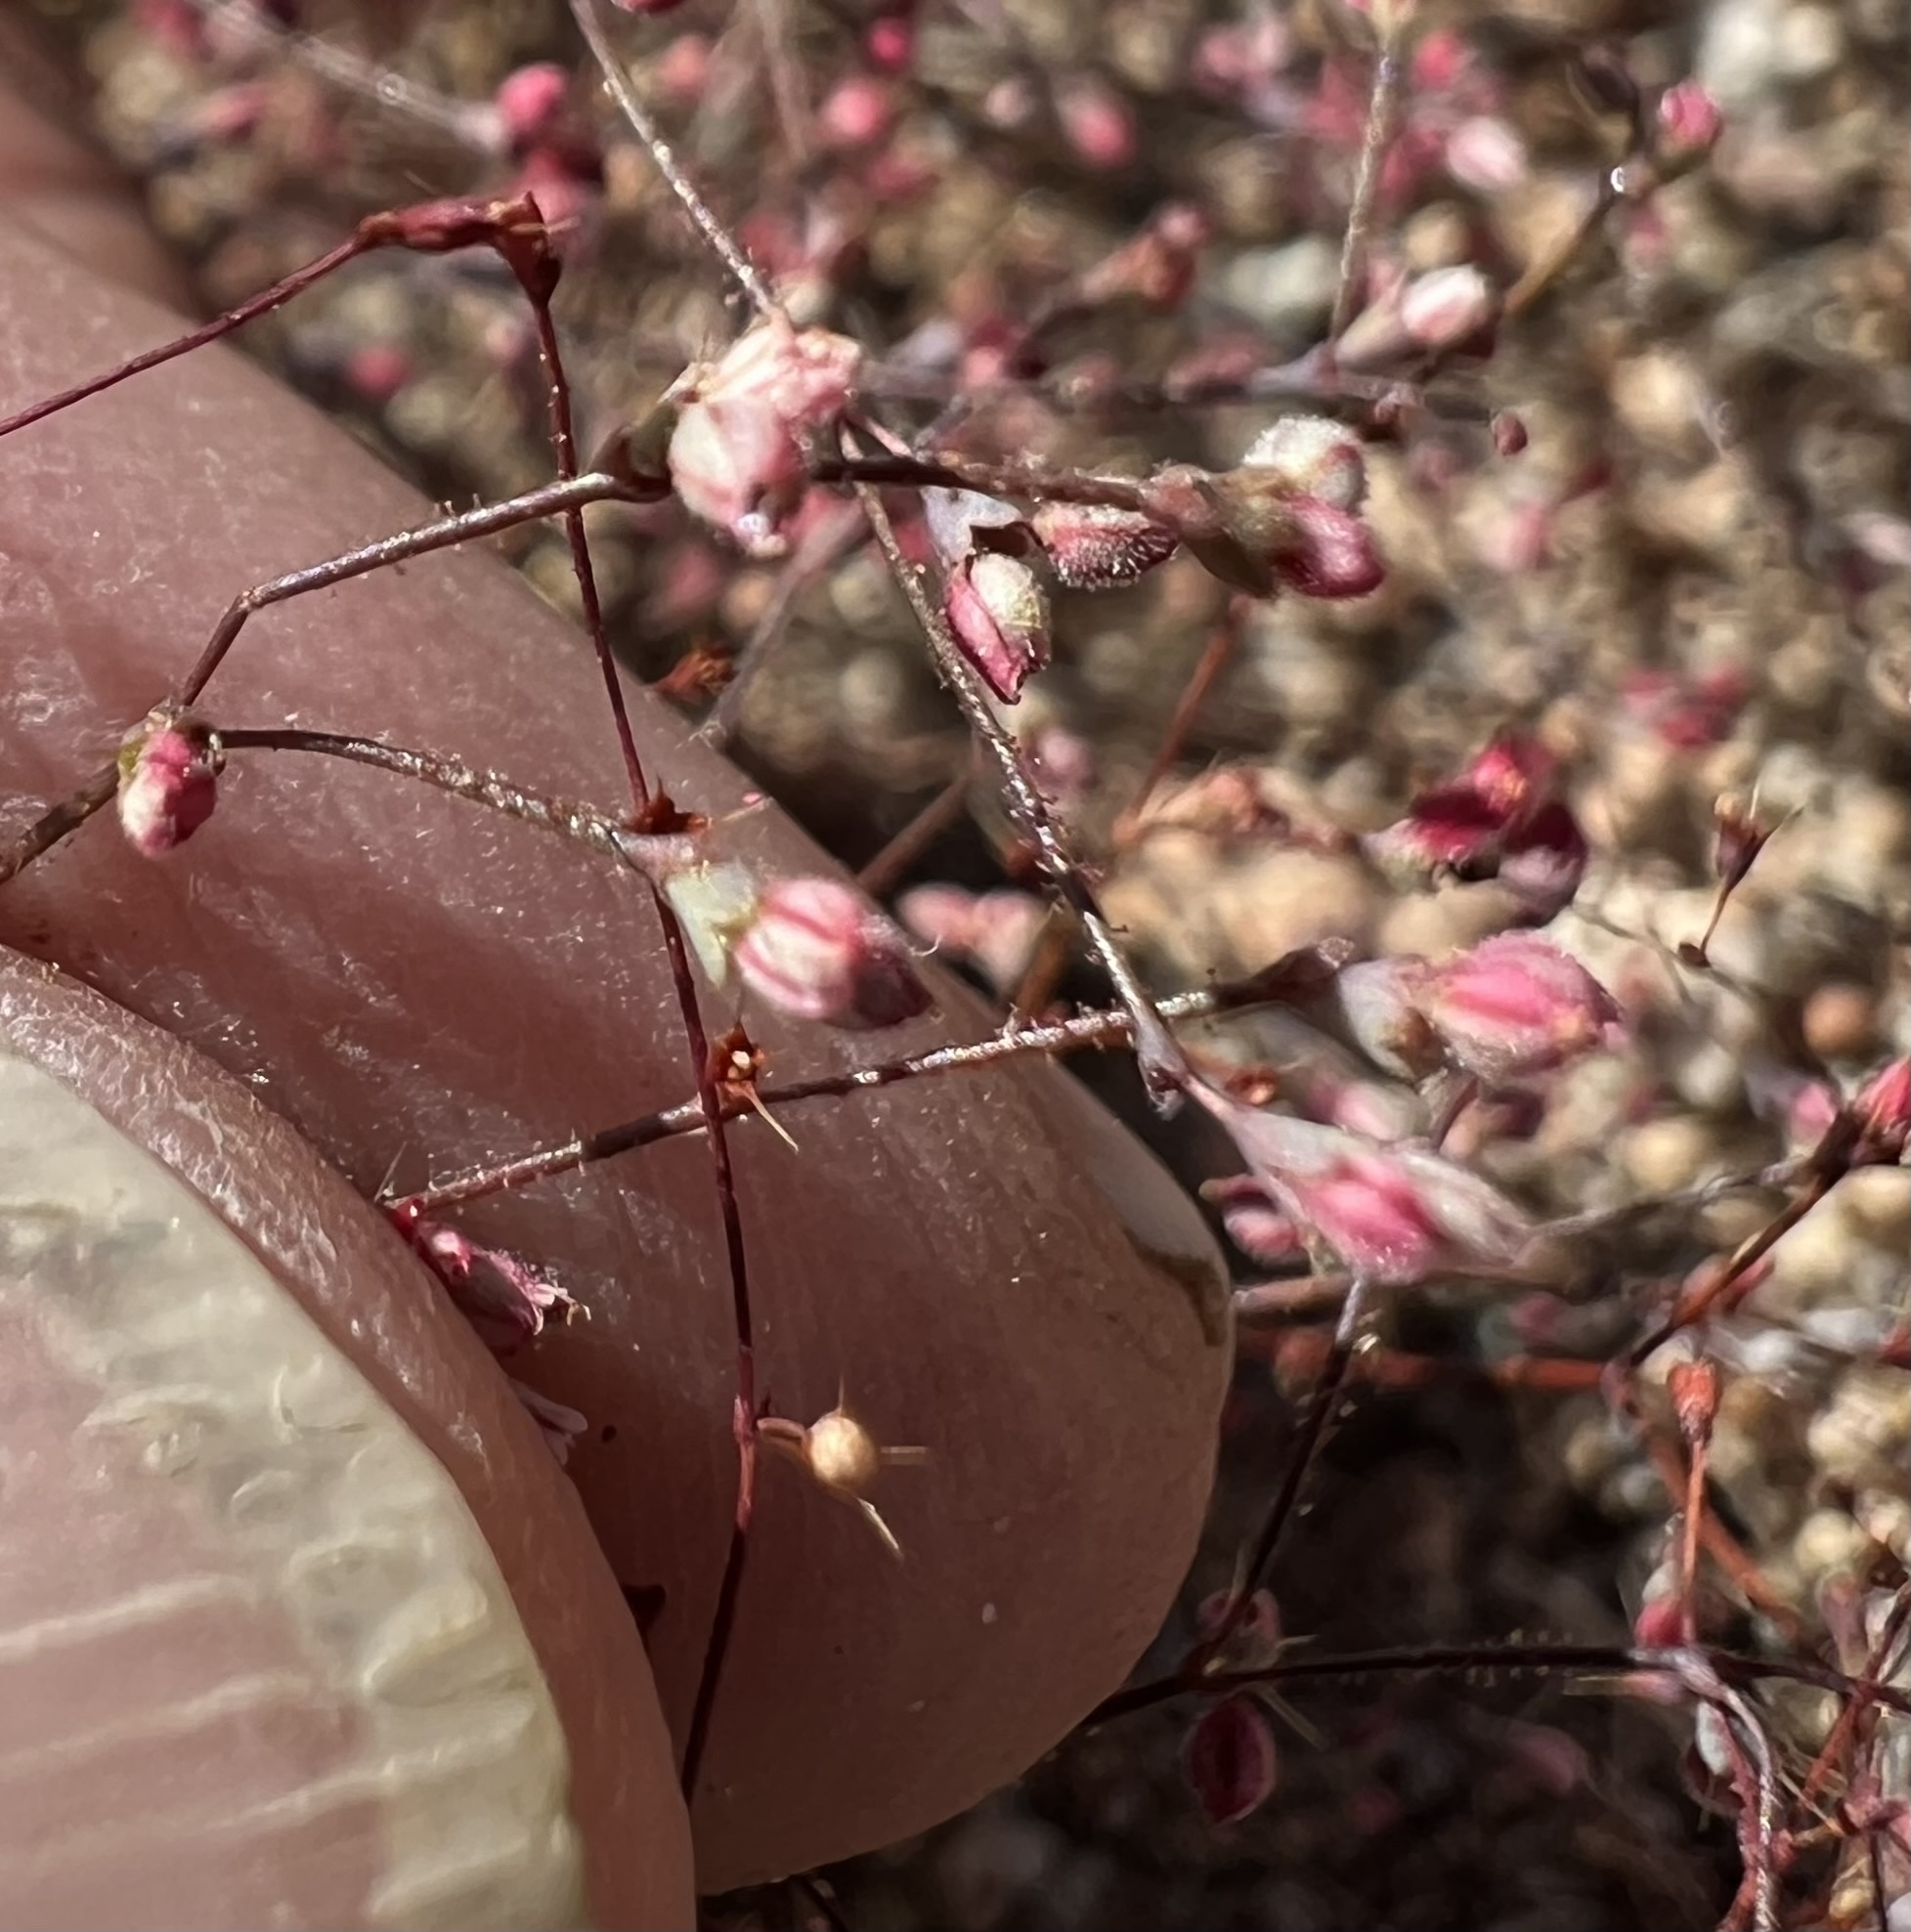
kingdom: Plantae
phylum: Tracheophyta
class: Magnoliopsida
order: Caryophyllales
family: Polygonaceae
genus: Oxytheca
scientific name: Oxytheca dendroidea
